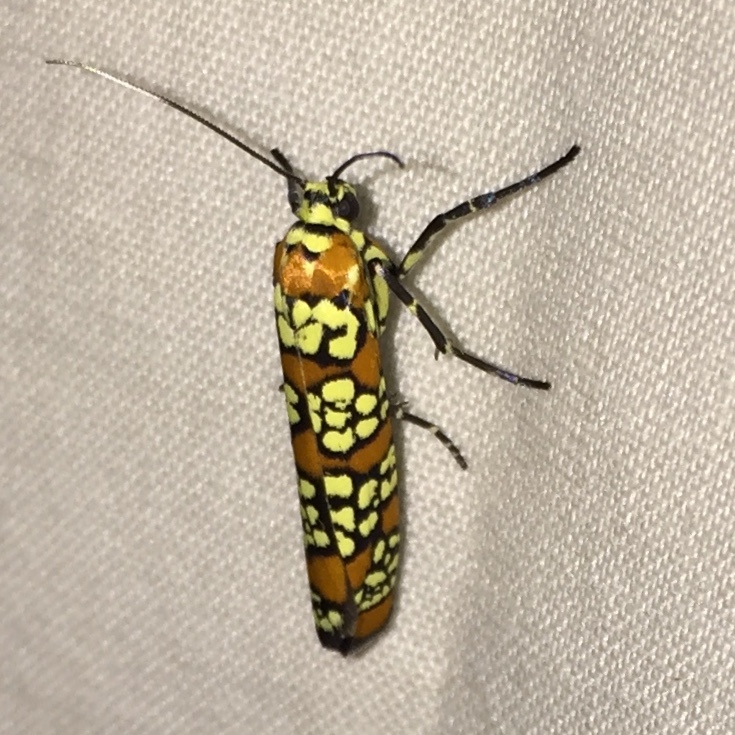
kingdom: Animalia
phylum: Arthropoda
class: Insecta
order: Lepidoptera
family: Attevidae
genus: Atteva
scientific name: Atteva punctella
